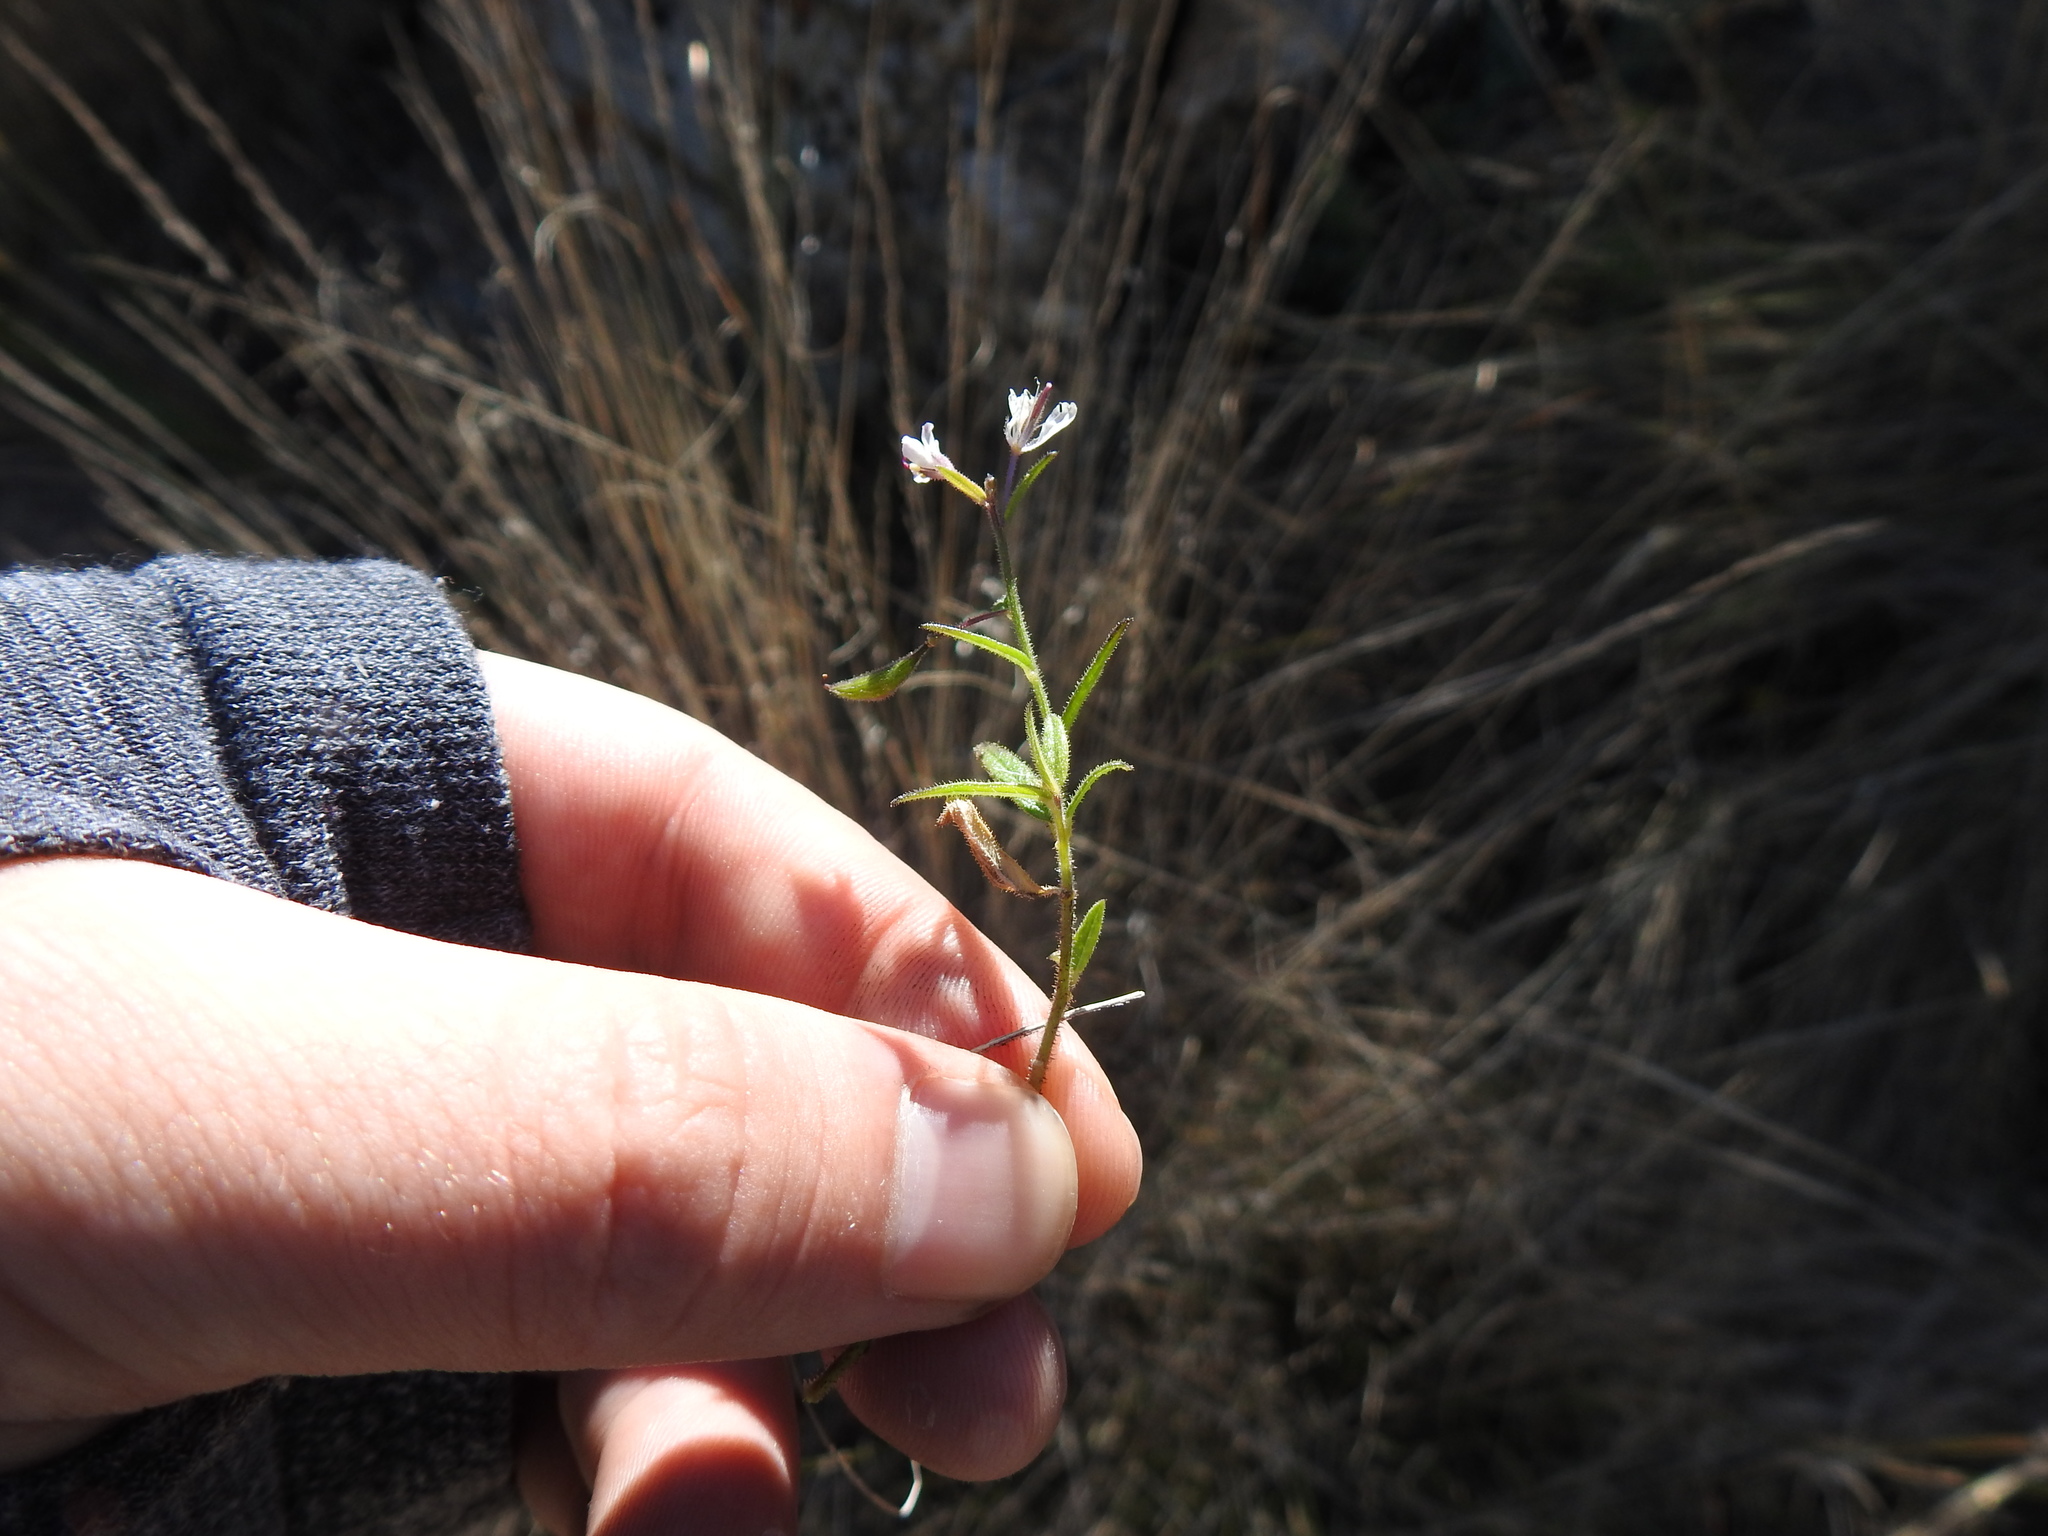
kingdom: Plantae
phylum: Tracheophyta
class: Magnoliopsida
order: Brassicales
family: Cleomaceae
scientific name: Cleomaceae
